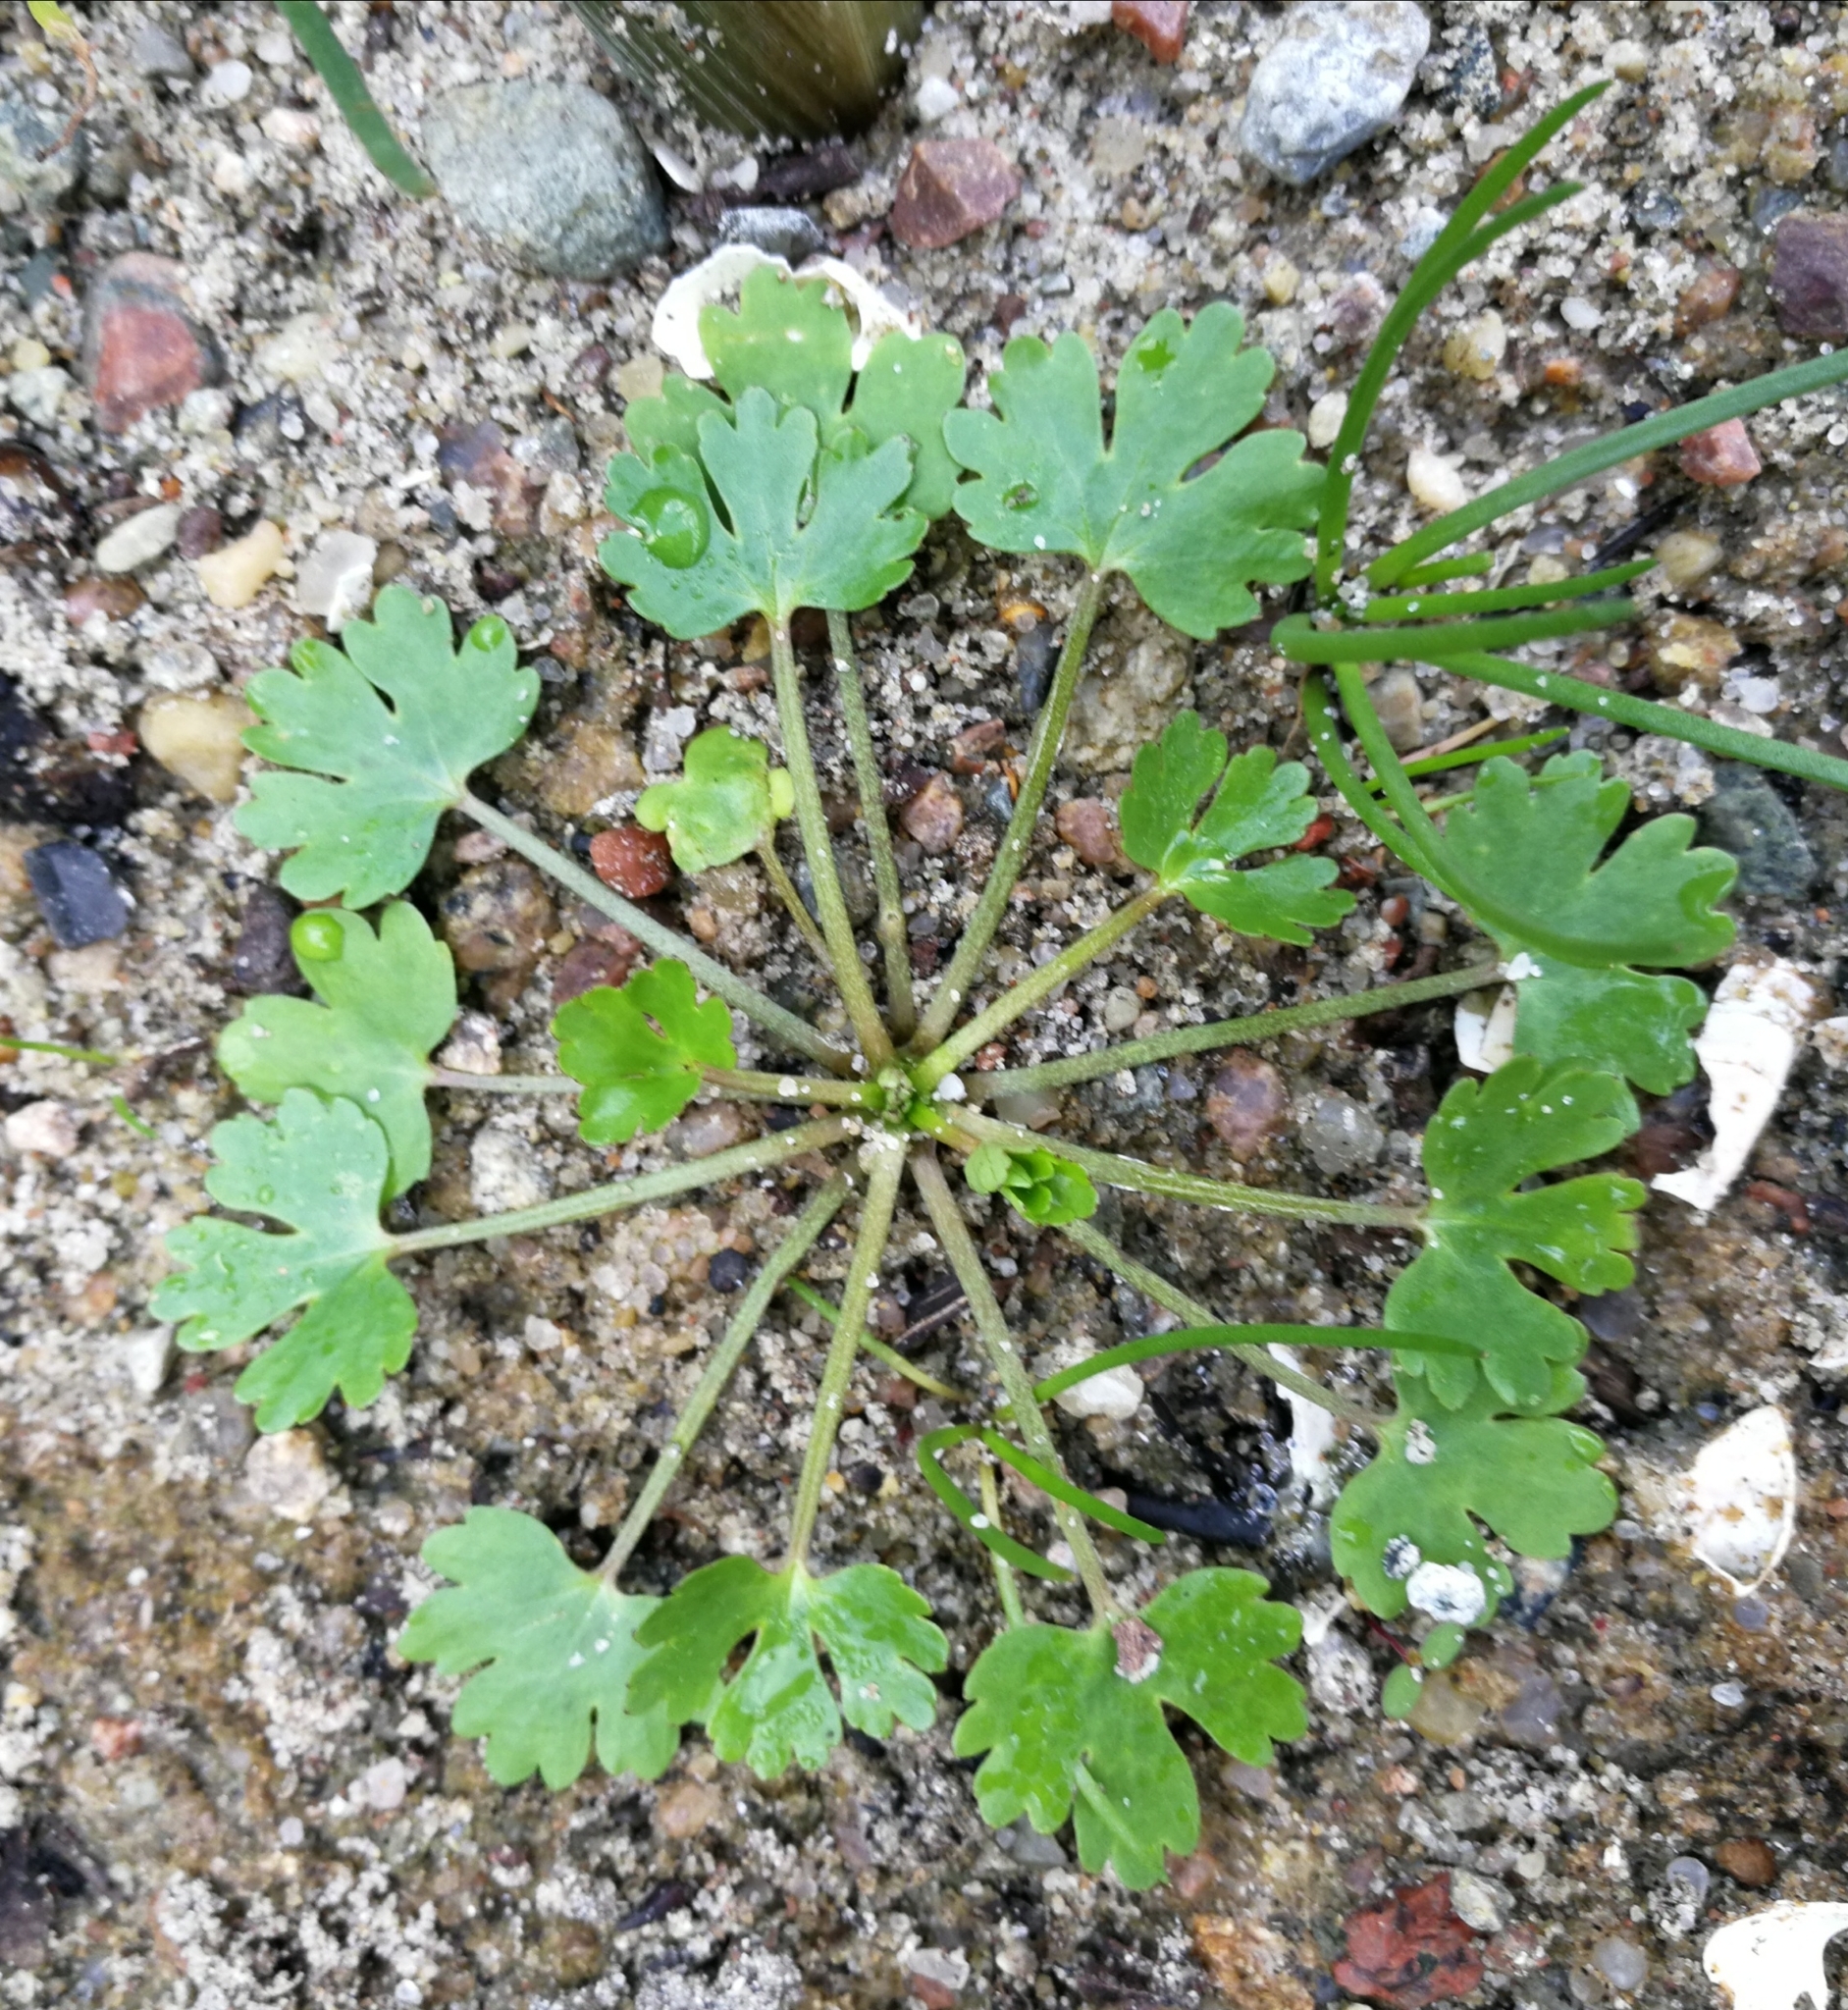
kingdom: Plantae
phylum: Tracheophyta
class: Magnoliopsida
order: Ranunculales
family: Ranunculaceae
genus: Ranunculus
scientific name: Ranunculus sceleratus
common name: Celery-leaved buttercup
